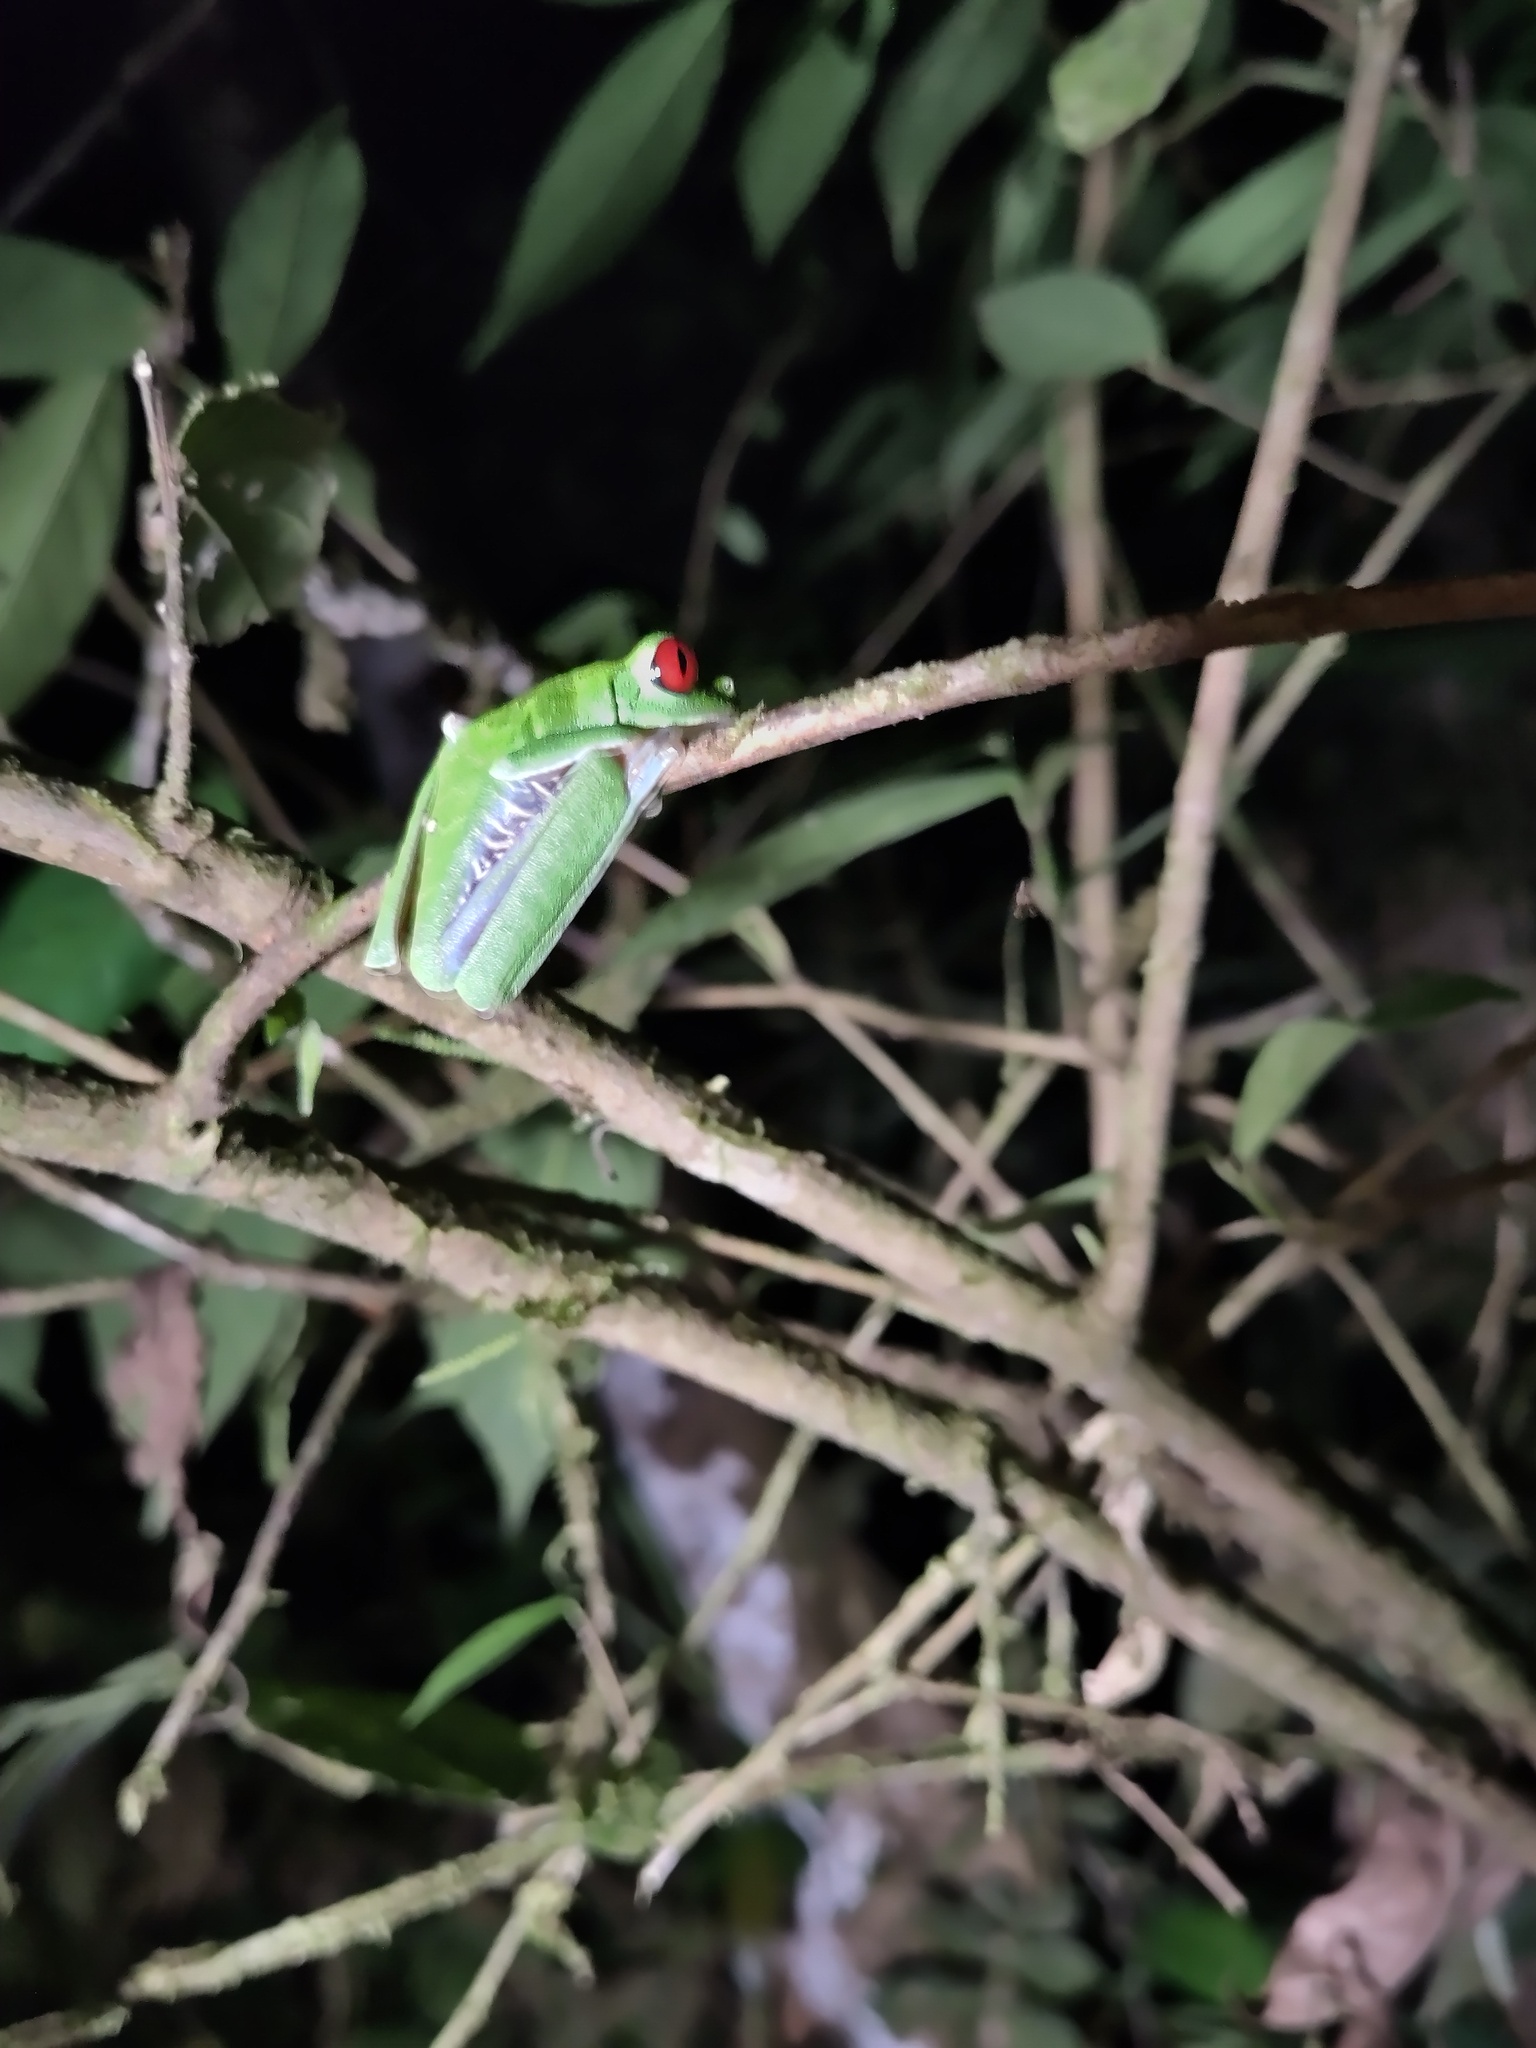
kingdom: Animalia
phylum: Chordata
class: Amphibia
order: Anura
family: Phyllomedusidae
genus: Agalychnis
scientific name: Agalychnis callidryas
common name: Red-eyed treefrog
